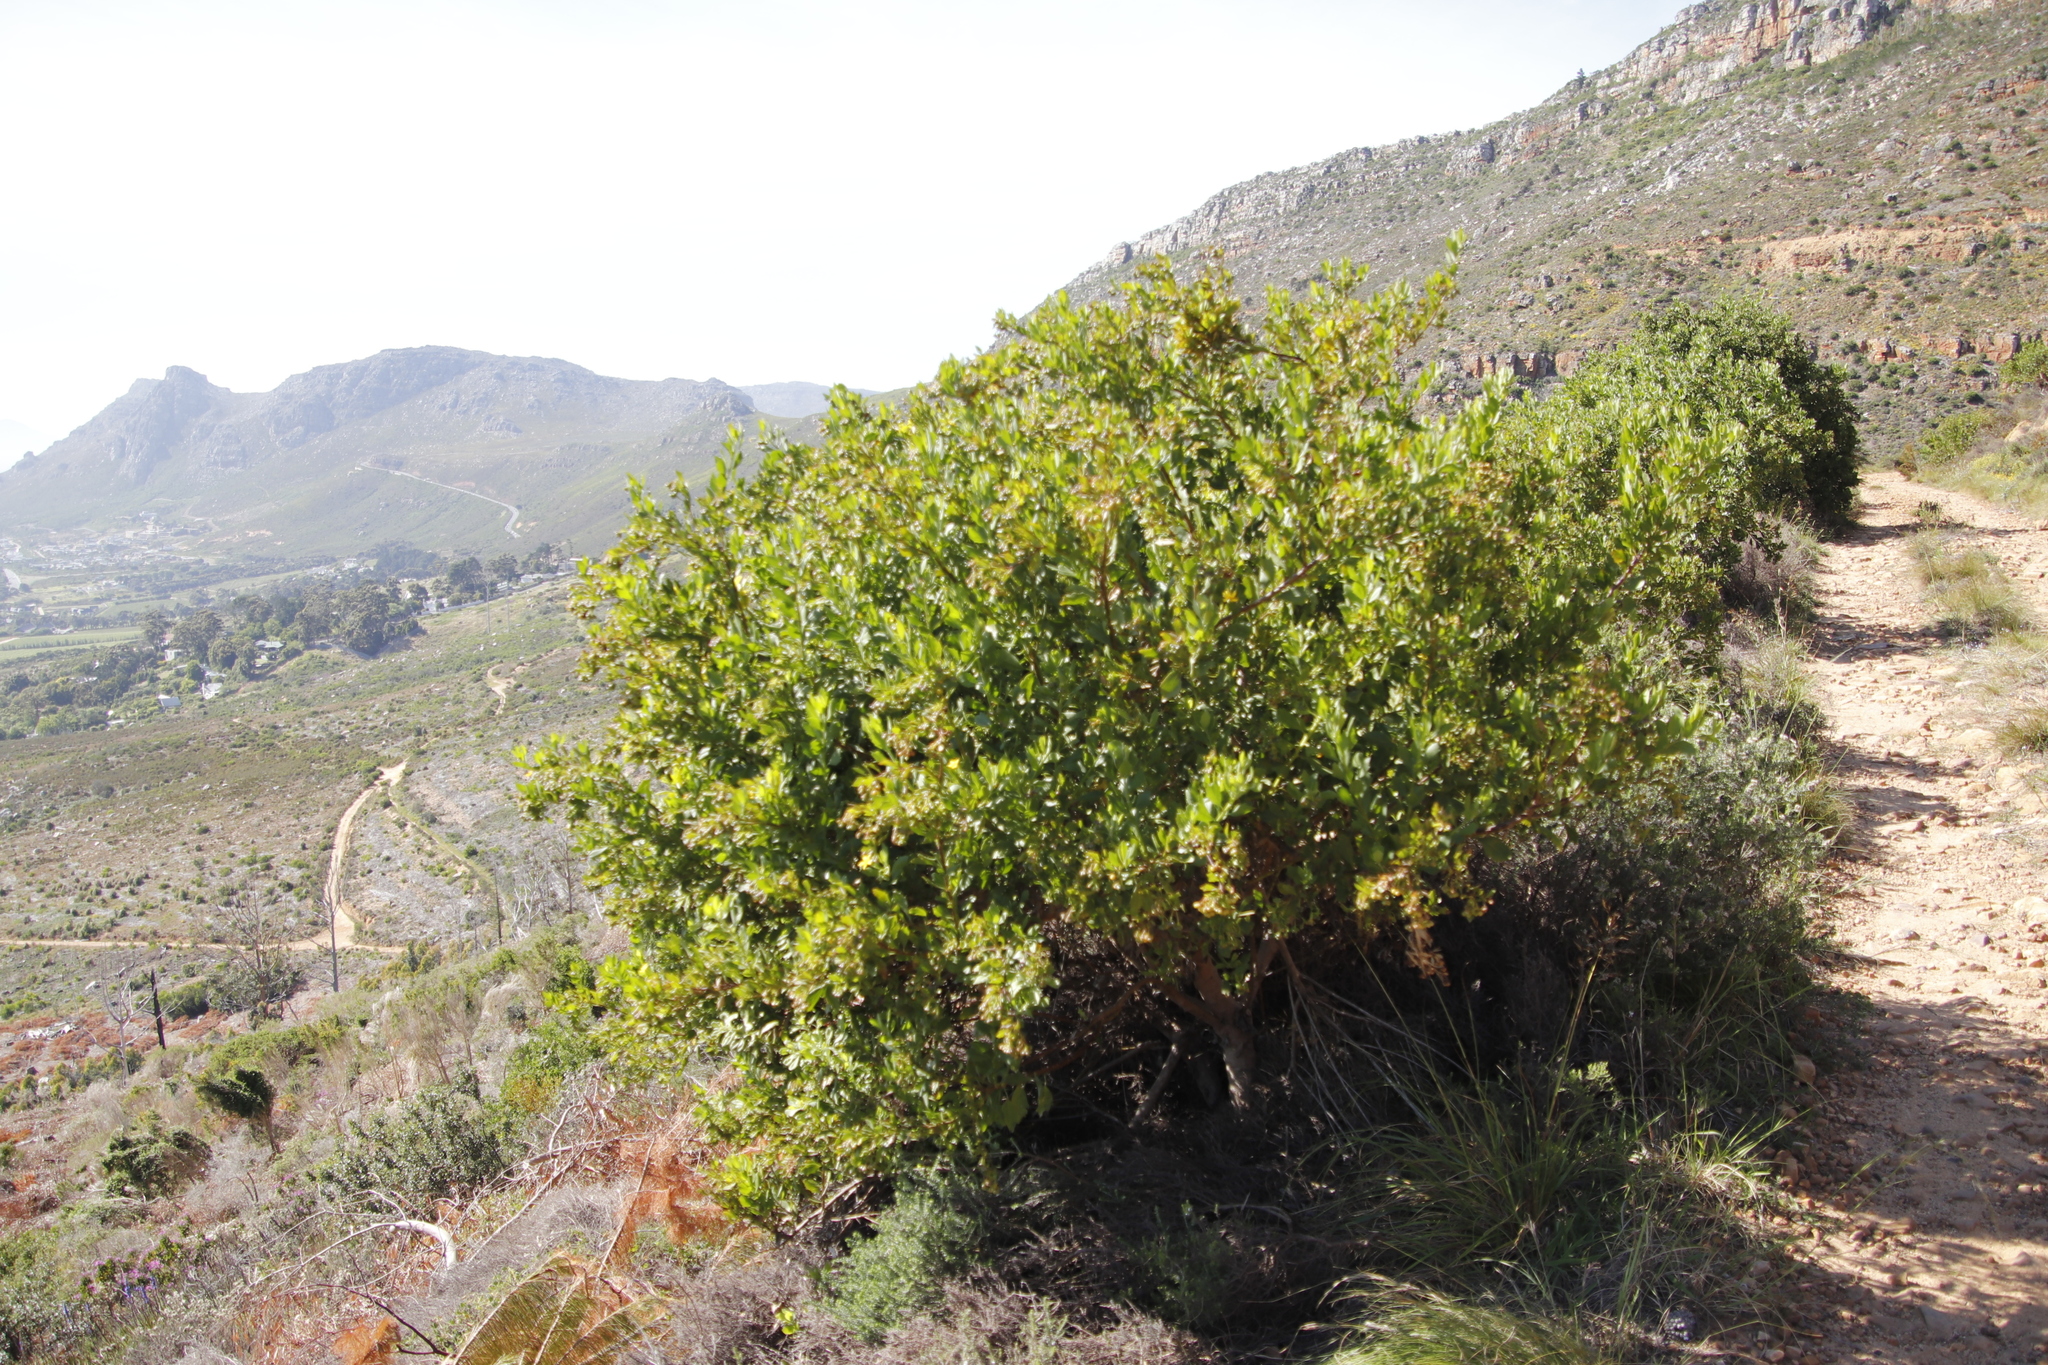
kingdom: Plantae
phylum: Tracheophyta
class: Magnoliopsida
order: Asterales
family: Asteraceae
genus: Osteospermum
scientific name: Osteospermum moniliferum
